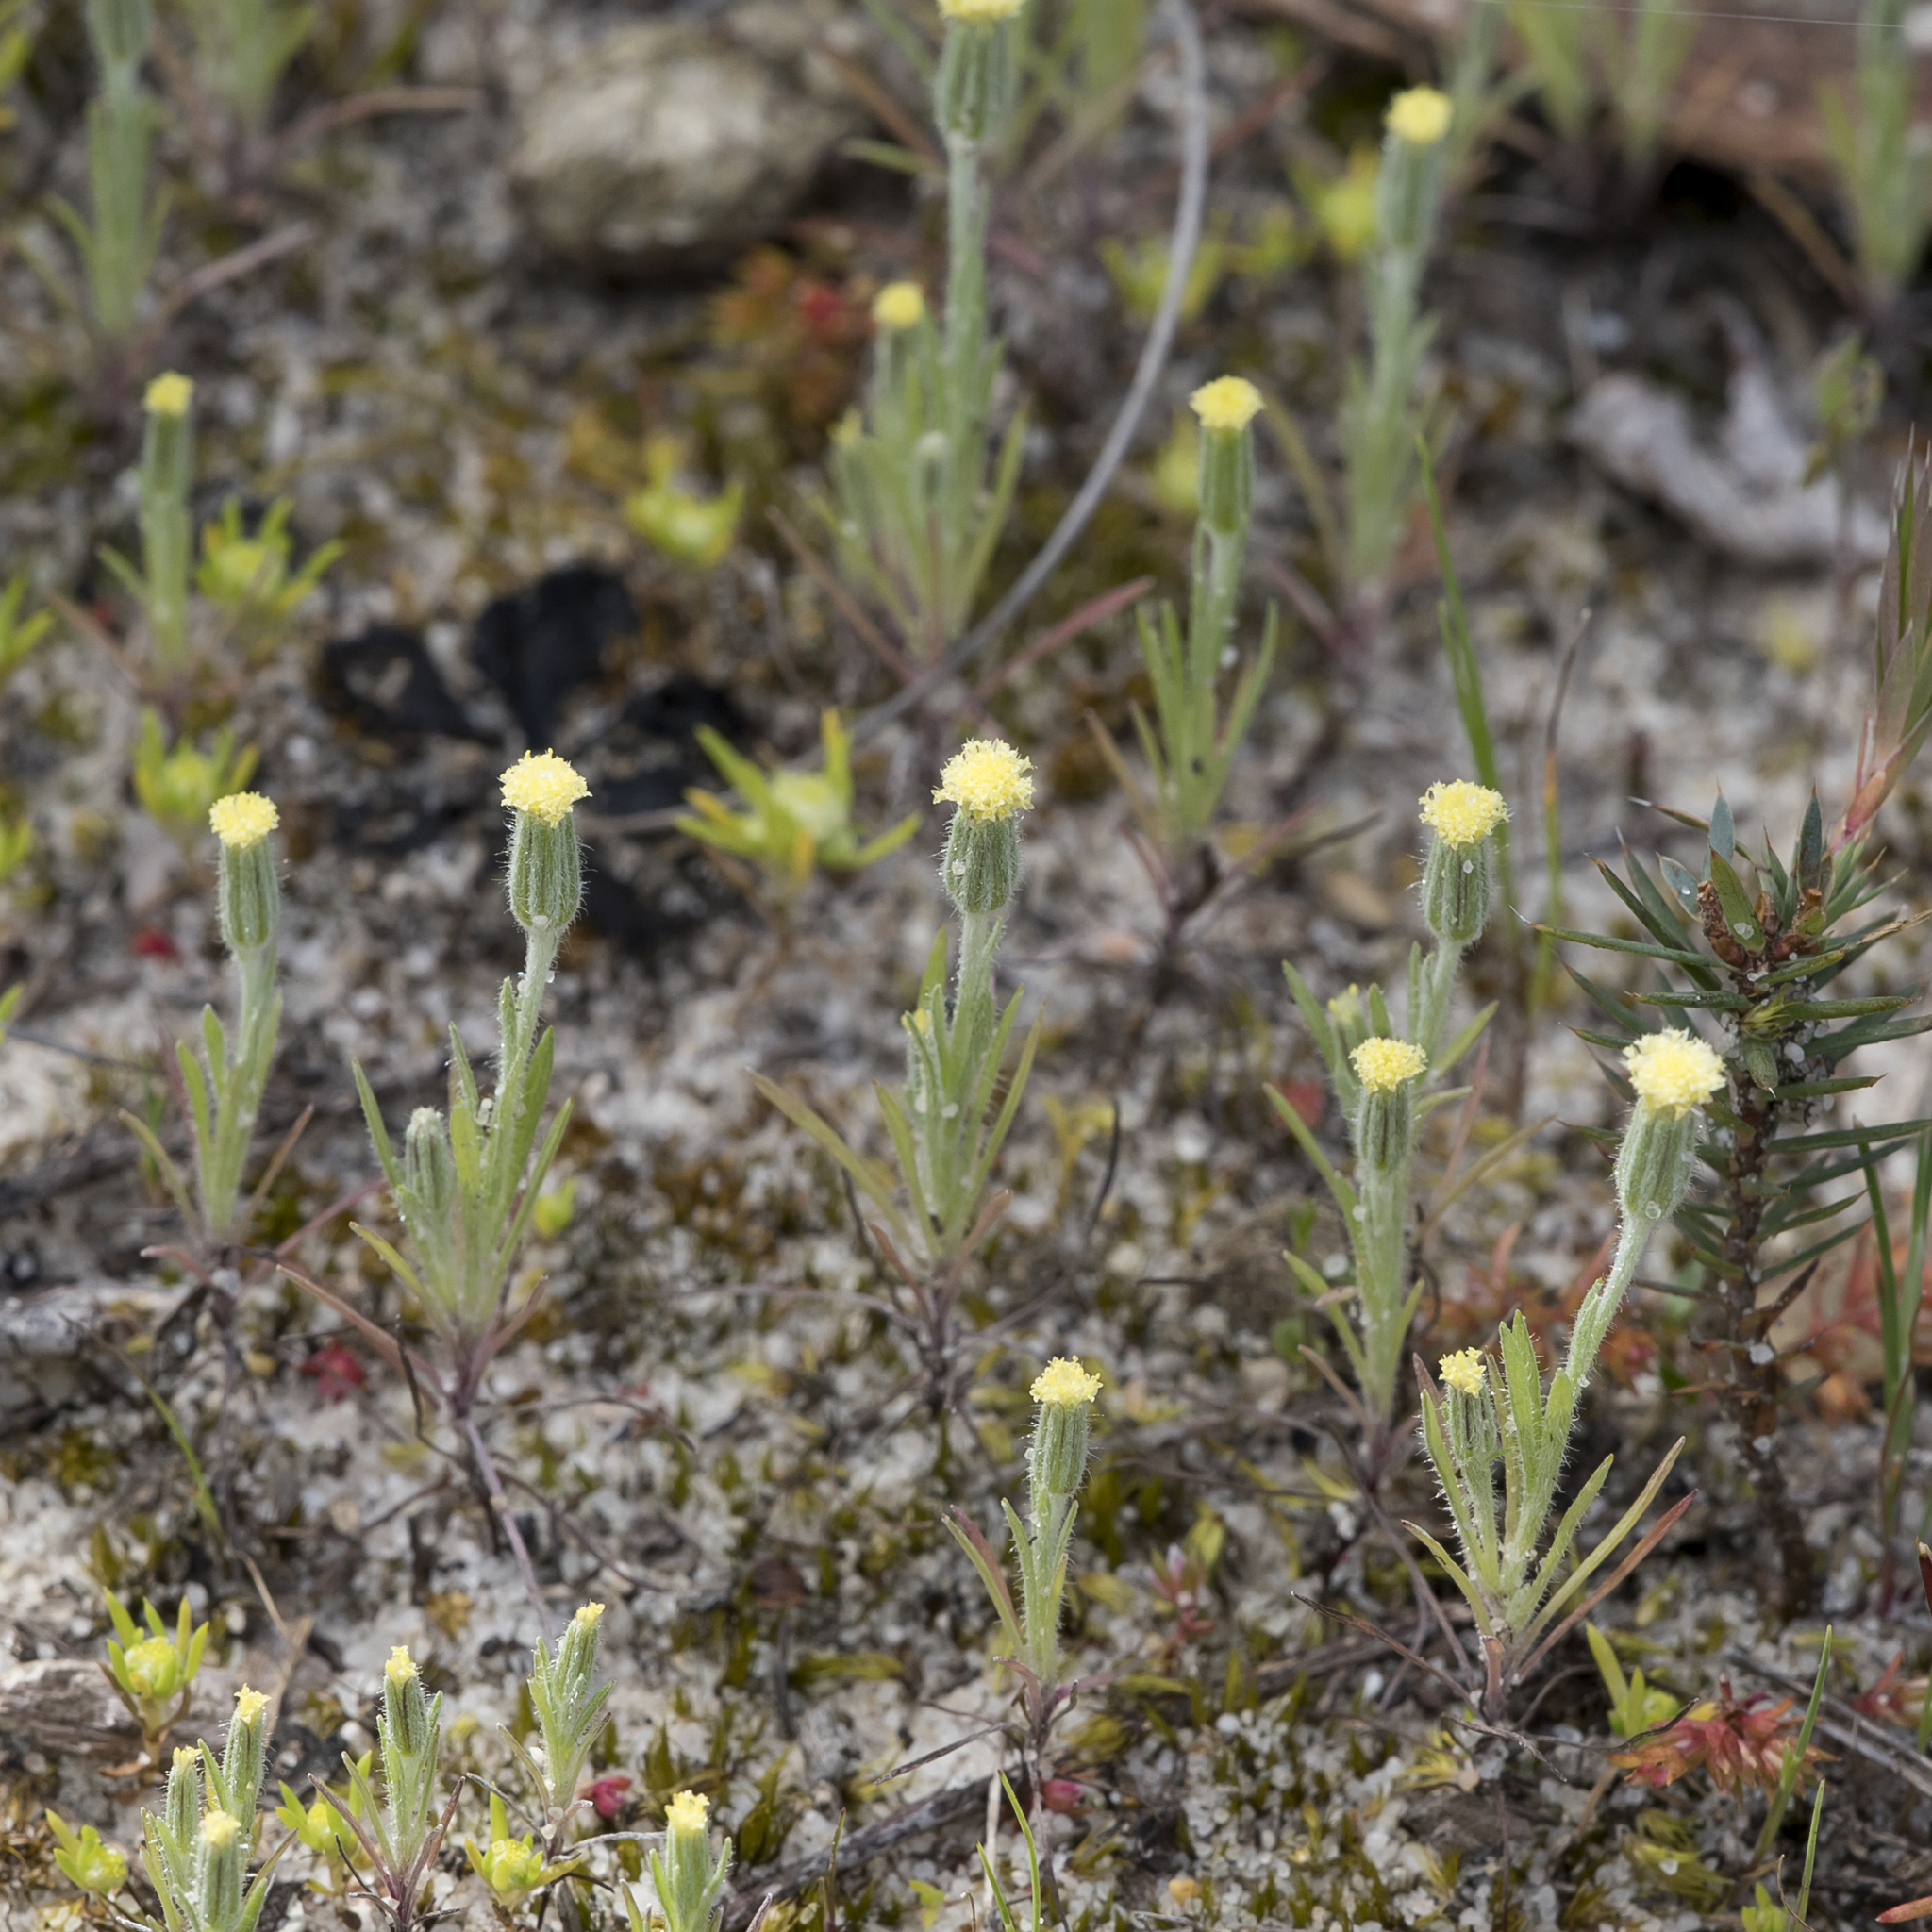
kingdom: Plantae
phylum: Tracheophyta
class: Magnoliopsida
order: Asterales
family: Asteraceae
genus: Millotia
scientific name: Millotia tenuifolia
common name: Soft millotia
